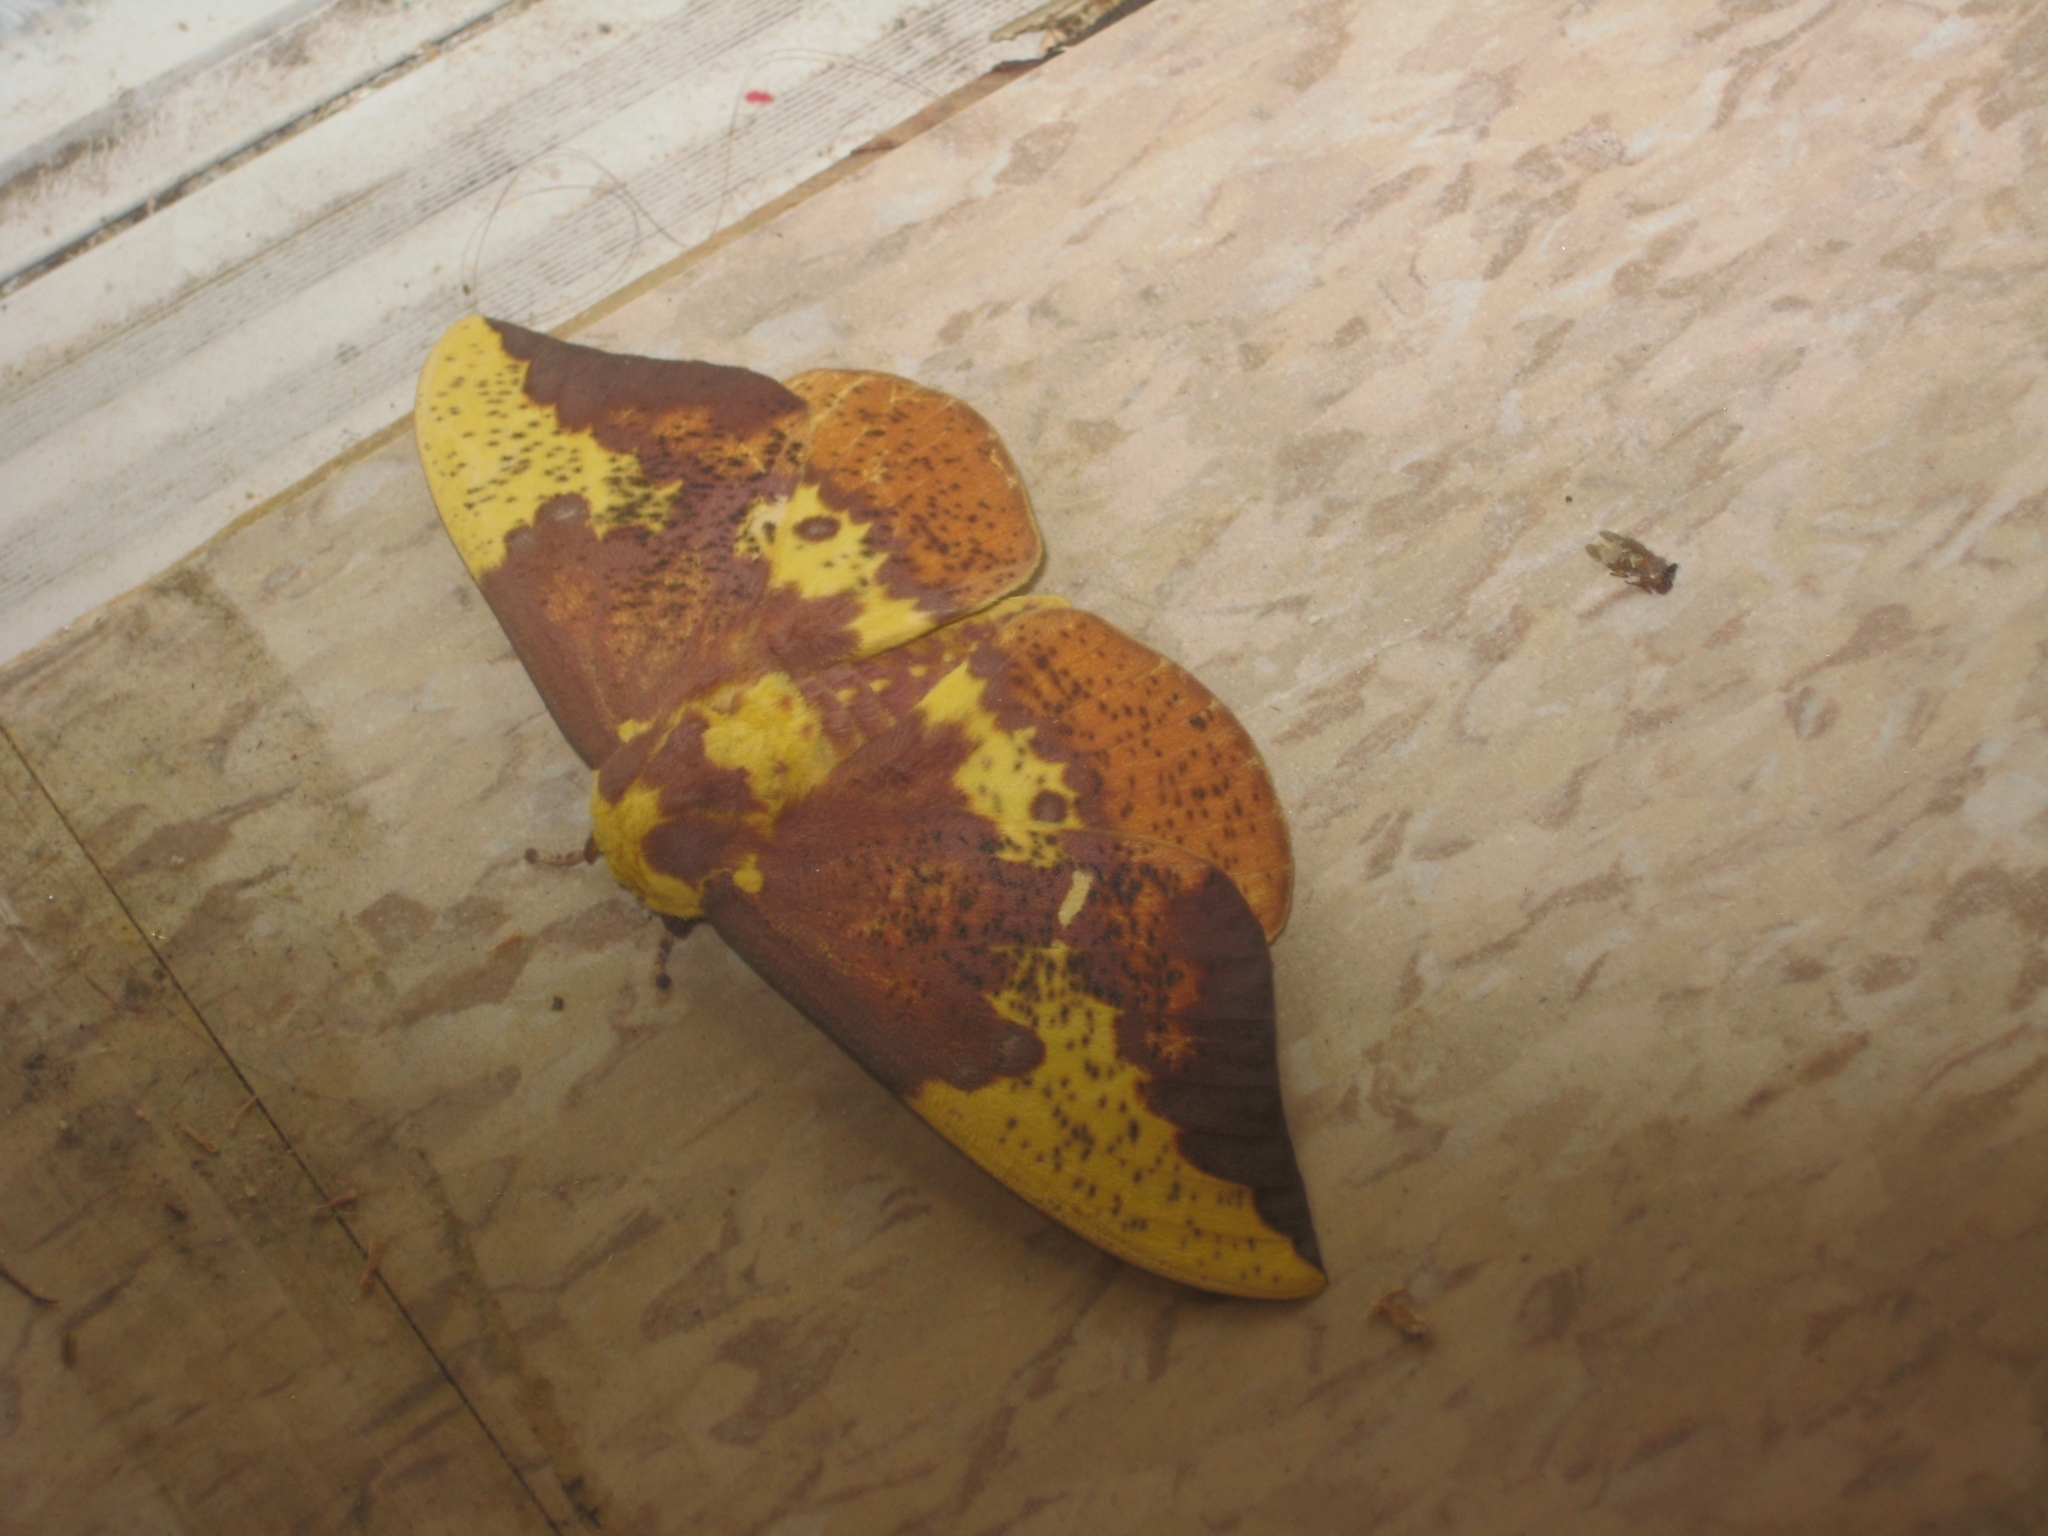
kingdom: Animalia
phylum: Arthropoda
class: Insecta
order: Lepidoptera
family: Saturniidae
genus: Eacles
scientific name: Eacles imperialis
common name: Imperial moth
